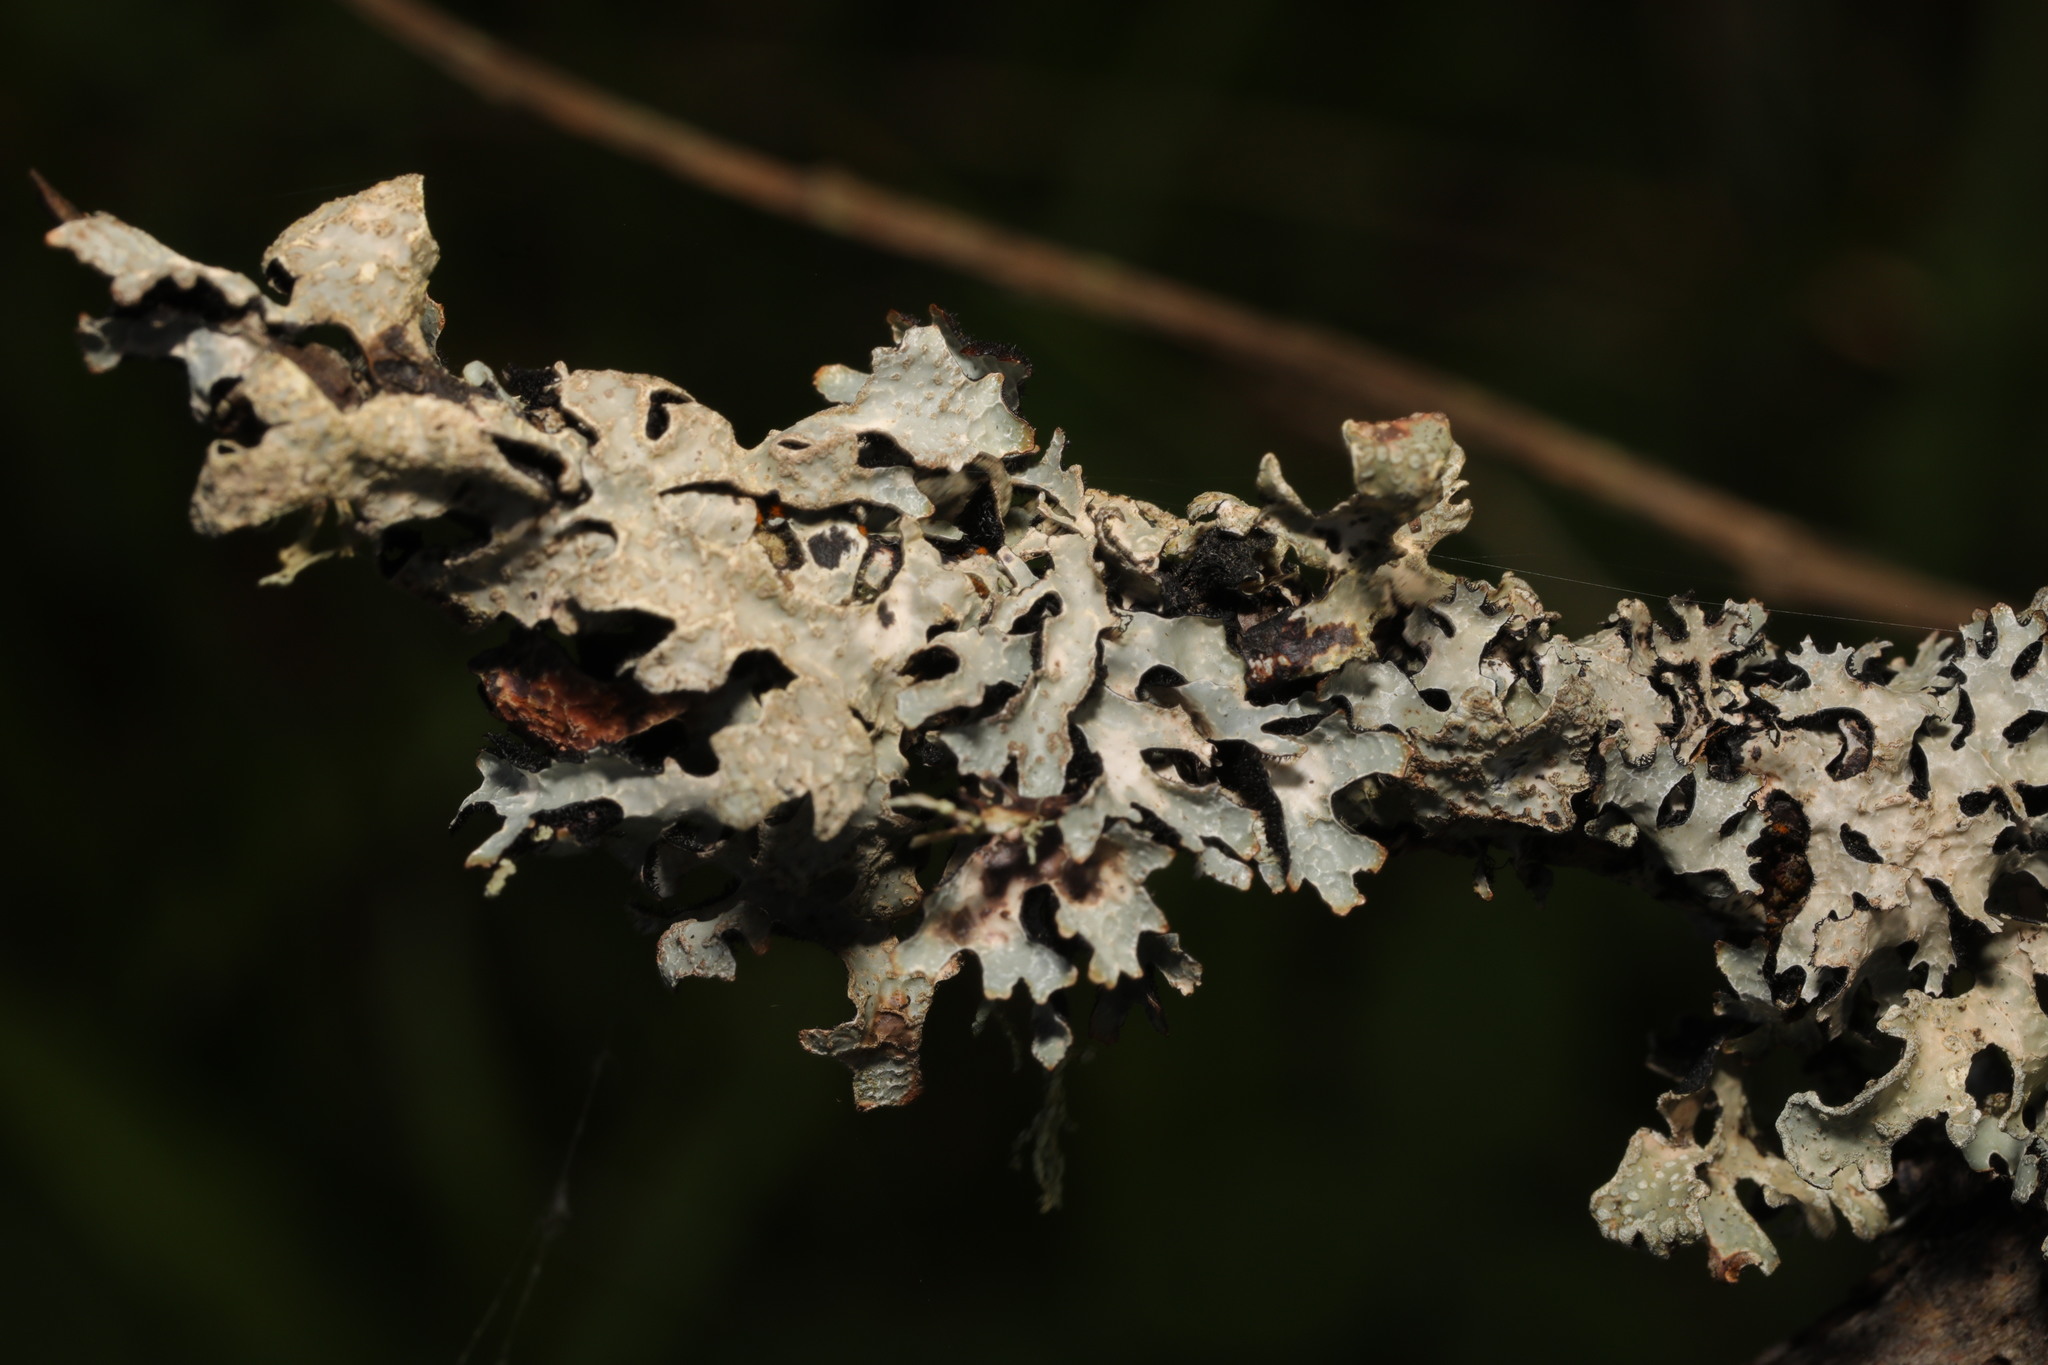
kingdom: Fungi
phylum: Ascomycota
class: Lecanoromycetes
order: Lecanorales
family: Parmeliaceae
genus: Parmelia
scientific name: Parmelia sulcata
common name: Netted shield lichen
